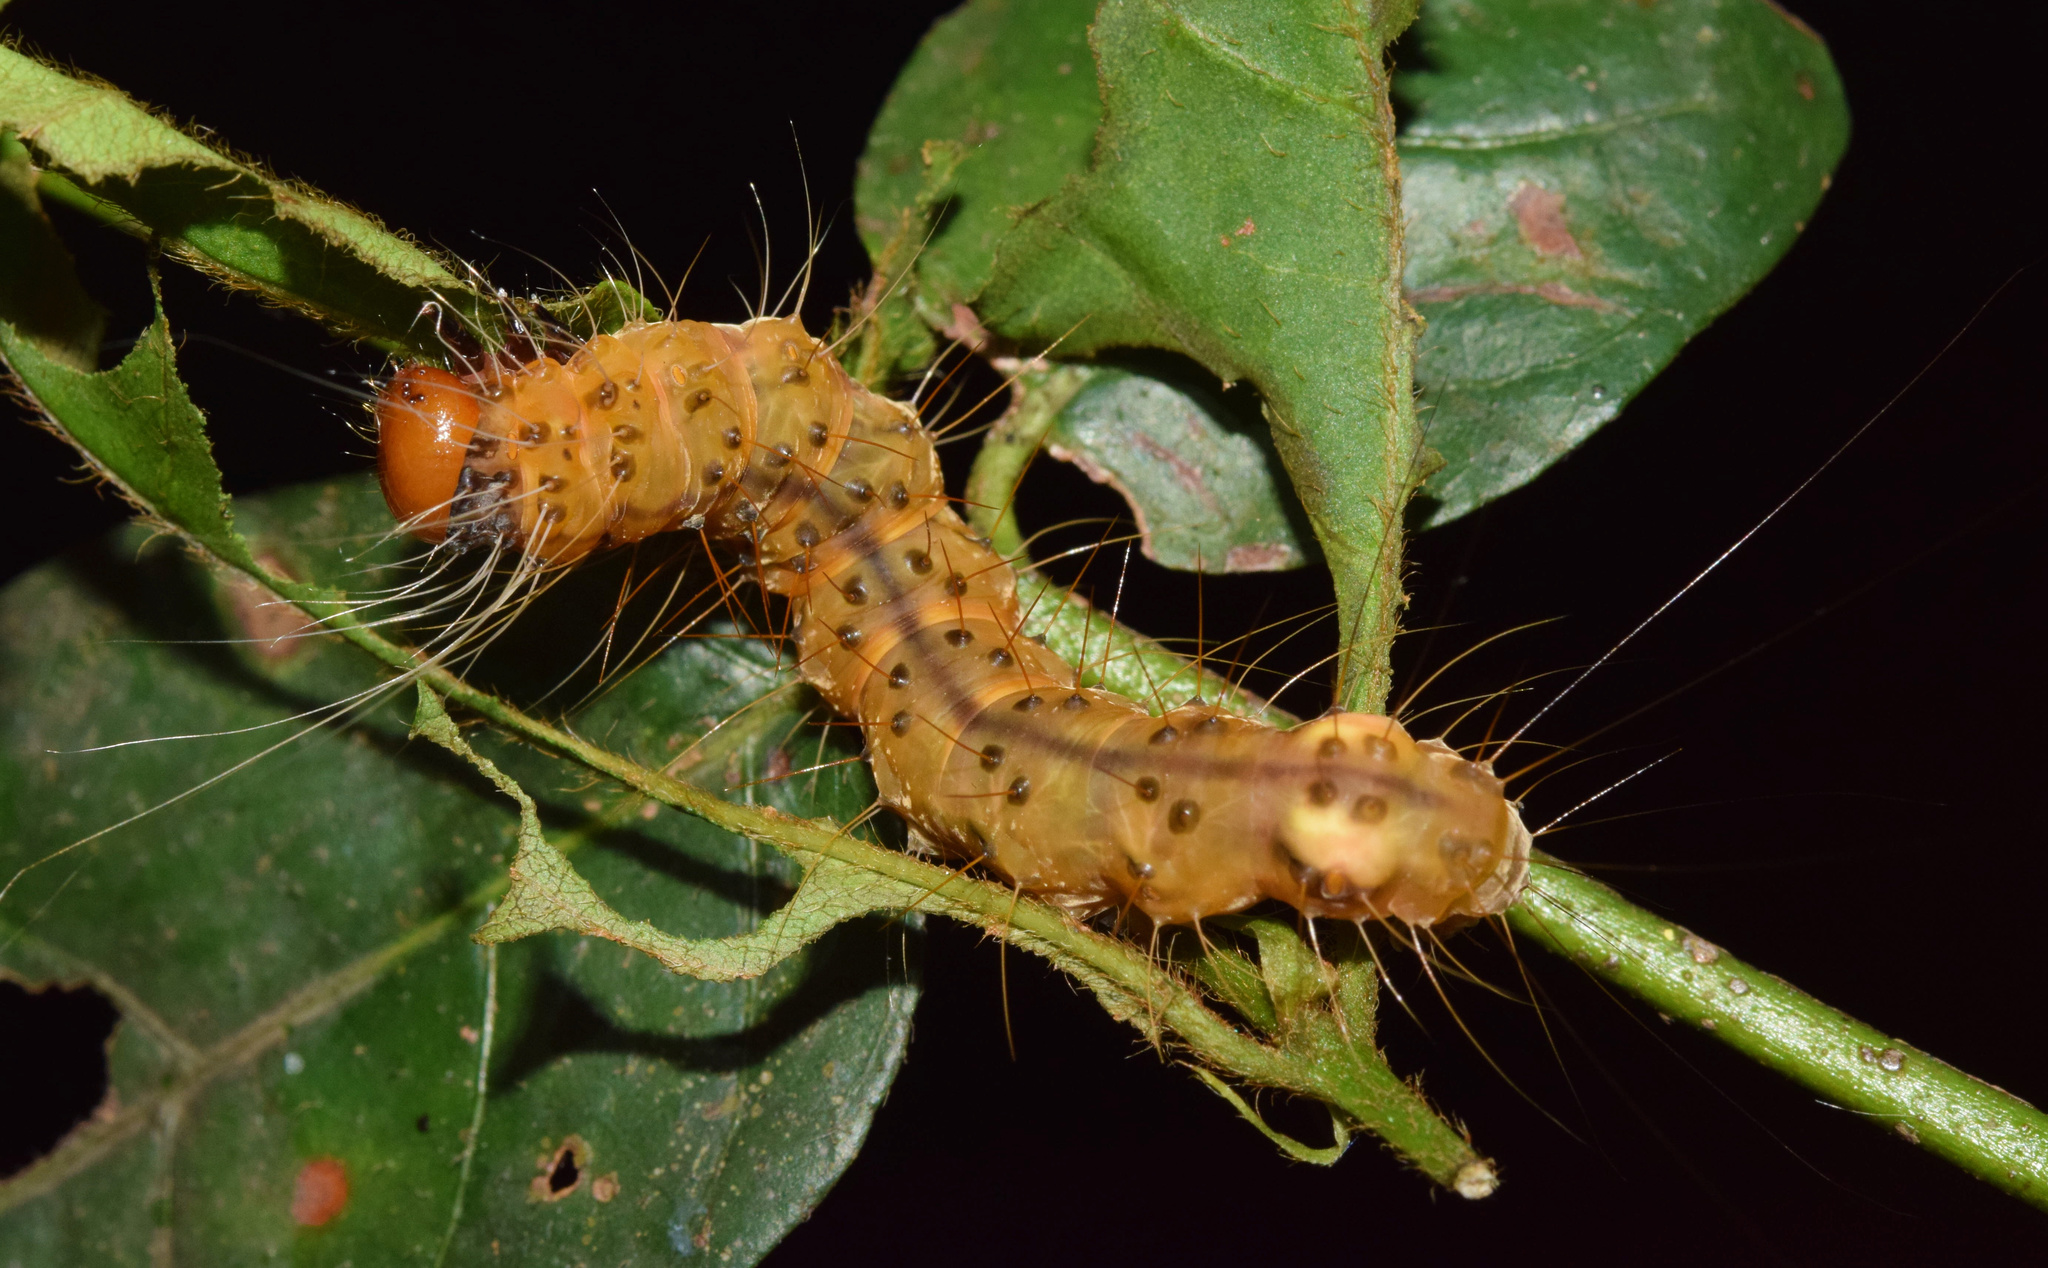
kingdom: Animalia
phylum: Arthropoda
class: Insecta
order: Lepidoptera
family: Erebidae
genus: Amerila
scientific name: Amerila bubo
